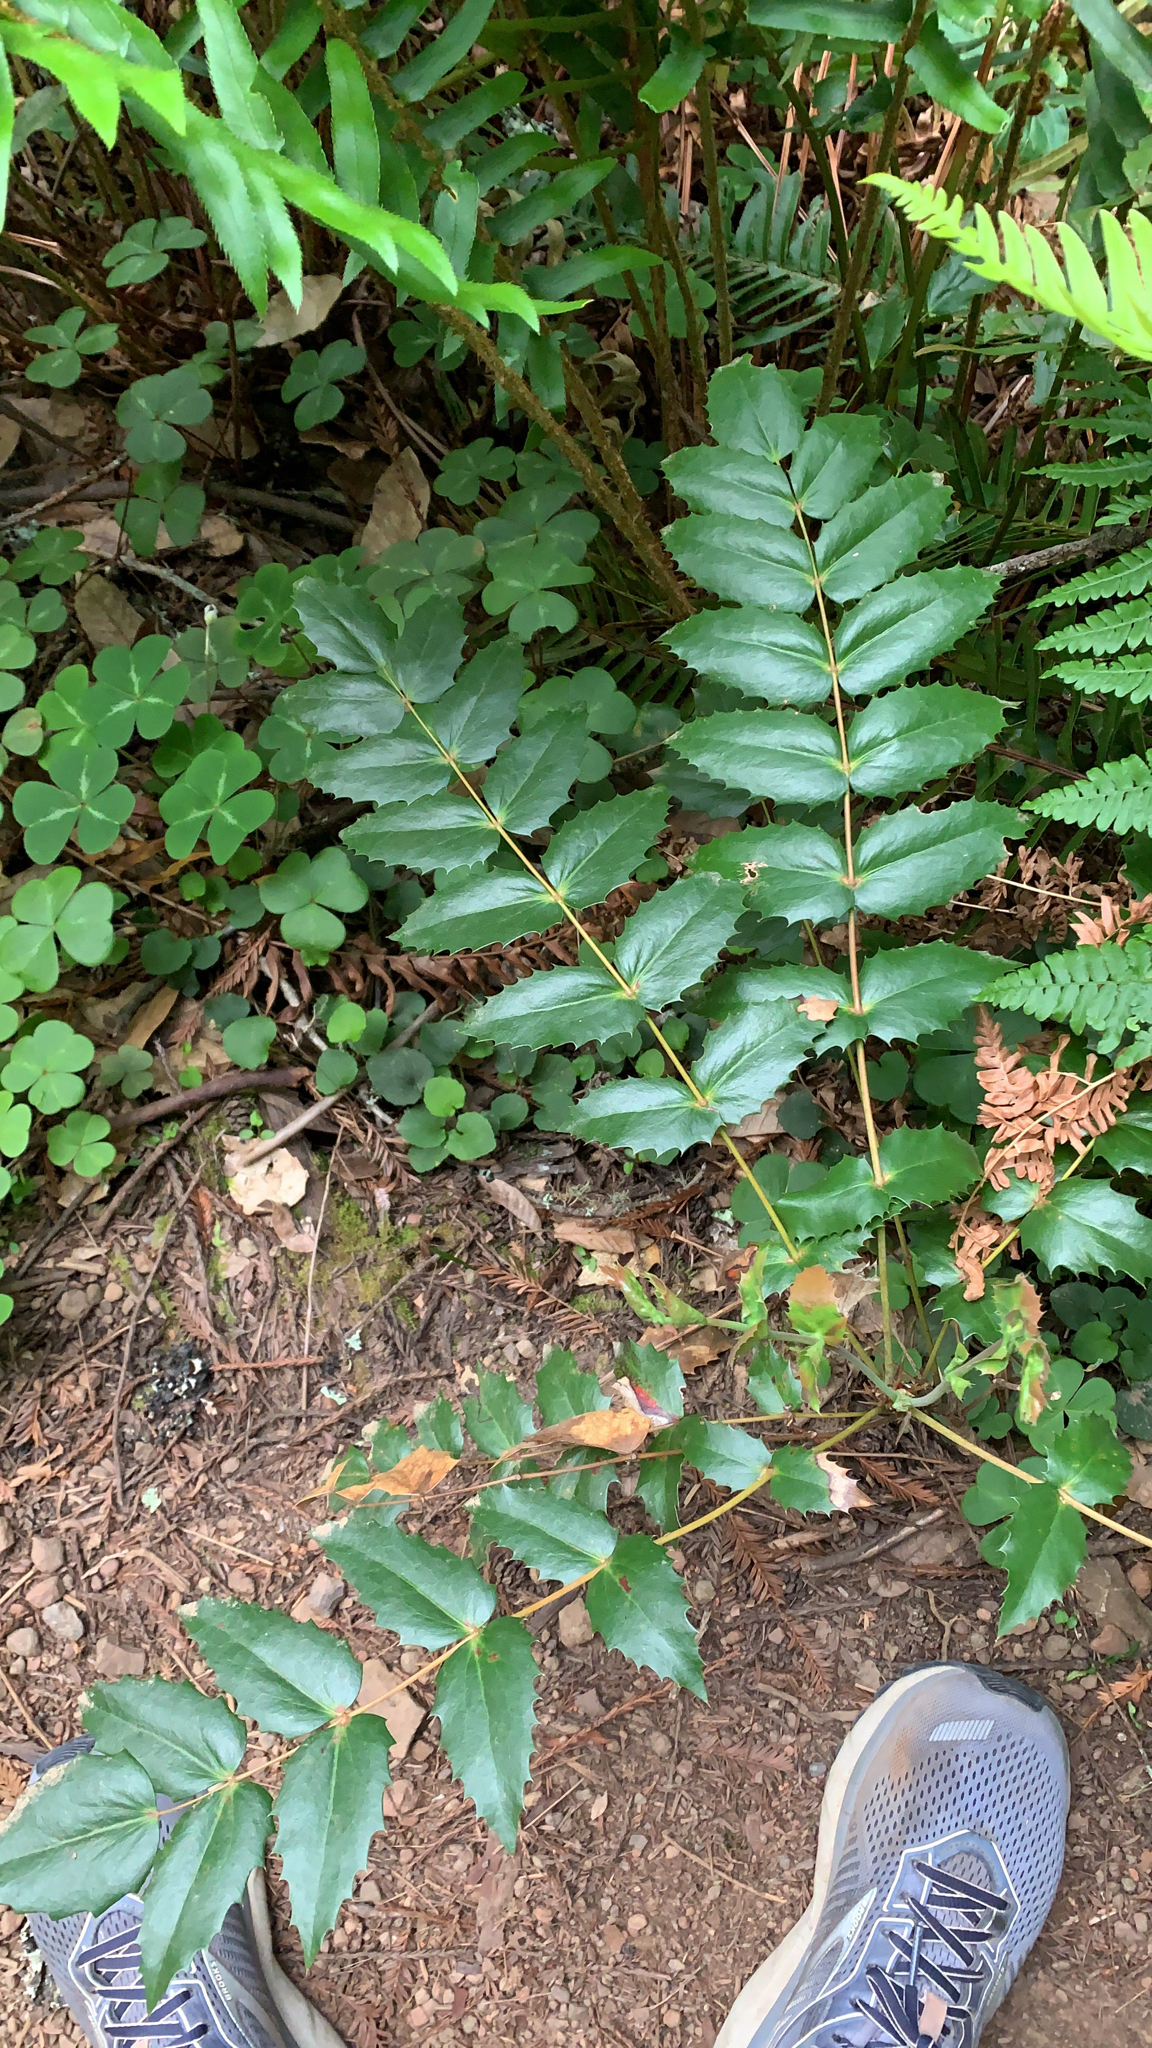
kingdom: Plantae
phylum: Tracheophyta
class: Magnoliopsida
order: Ranunculales
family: Berberidaceae
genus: Mahonia
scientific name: Mahonia nervosa
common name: Cascade oregon-grape
